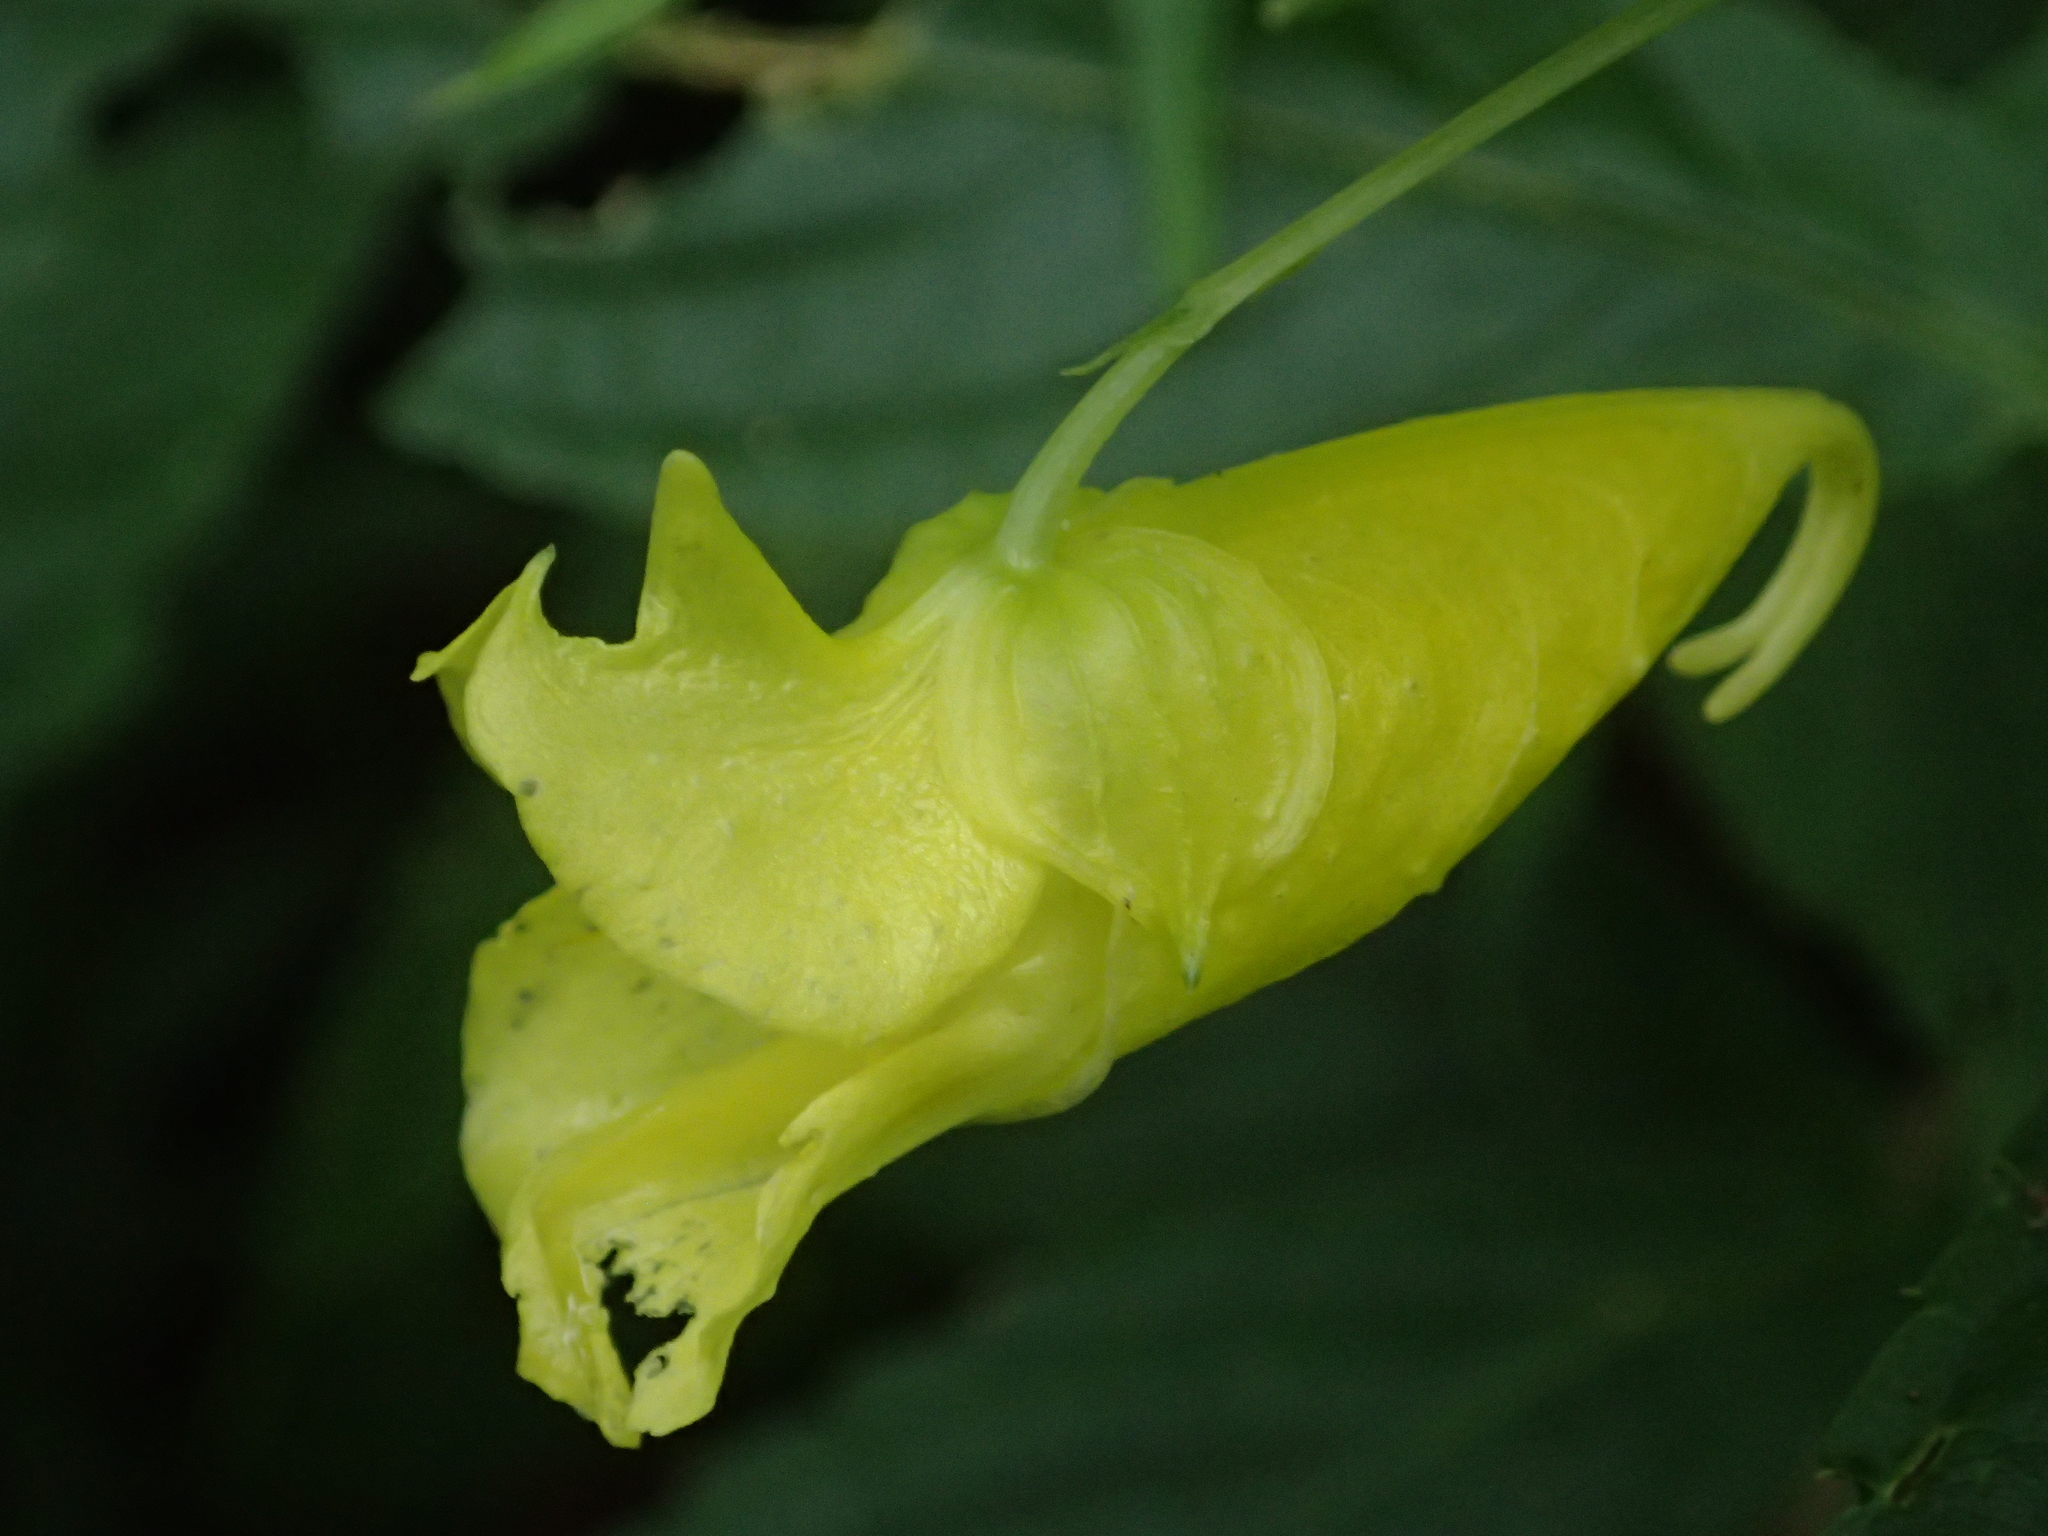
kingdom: Plantae
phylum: Tracheophyta
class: Magnoliopsida
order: Ericales
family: Balsaminaceae
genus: Impatiens
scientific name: Impatiens tayemonii
